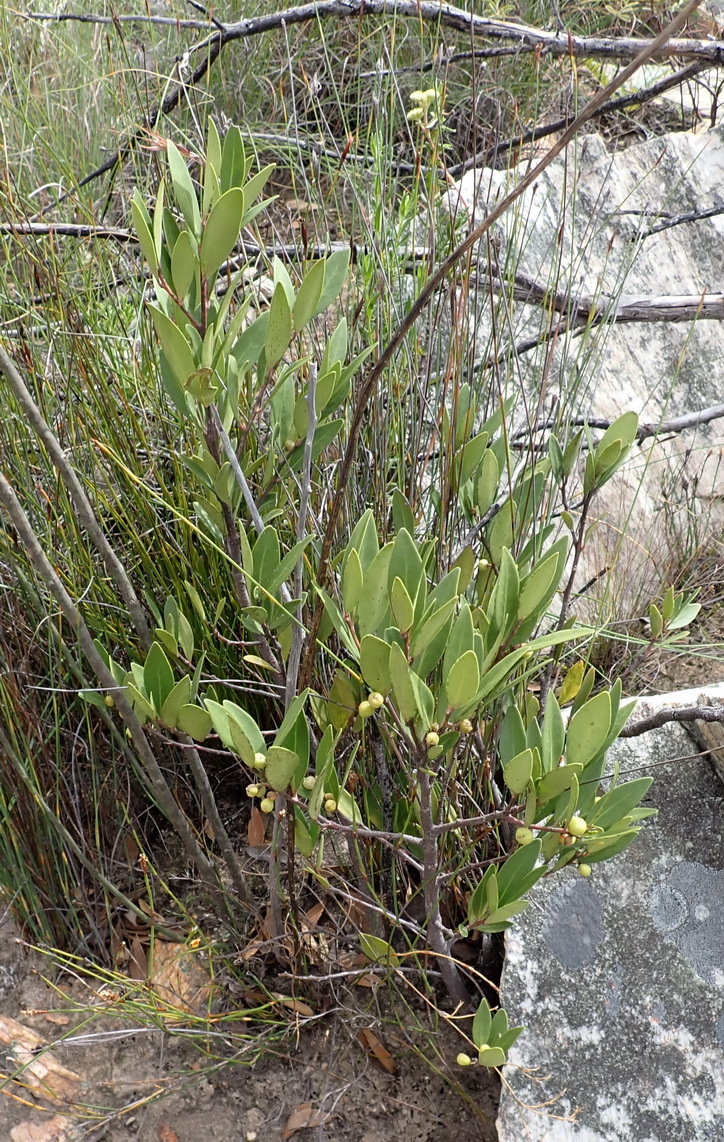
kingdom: Plantae
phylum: Tracheophyta
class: Magnoliopsida
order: Ericales
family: Ebenaceae
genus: Euclea
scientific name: Euclea racemosa
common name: Dune guarri
